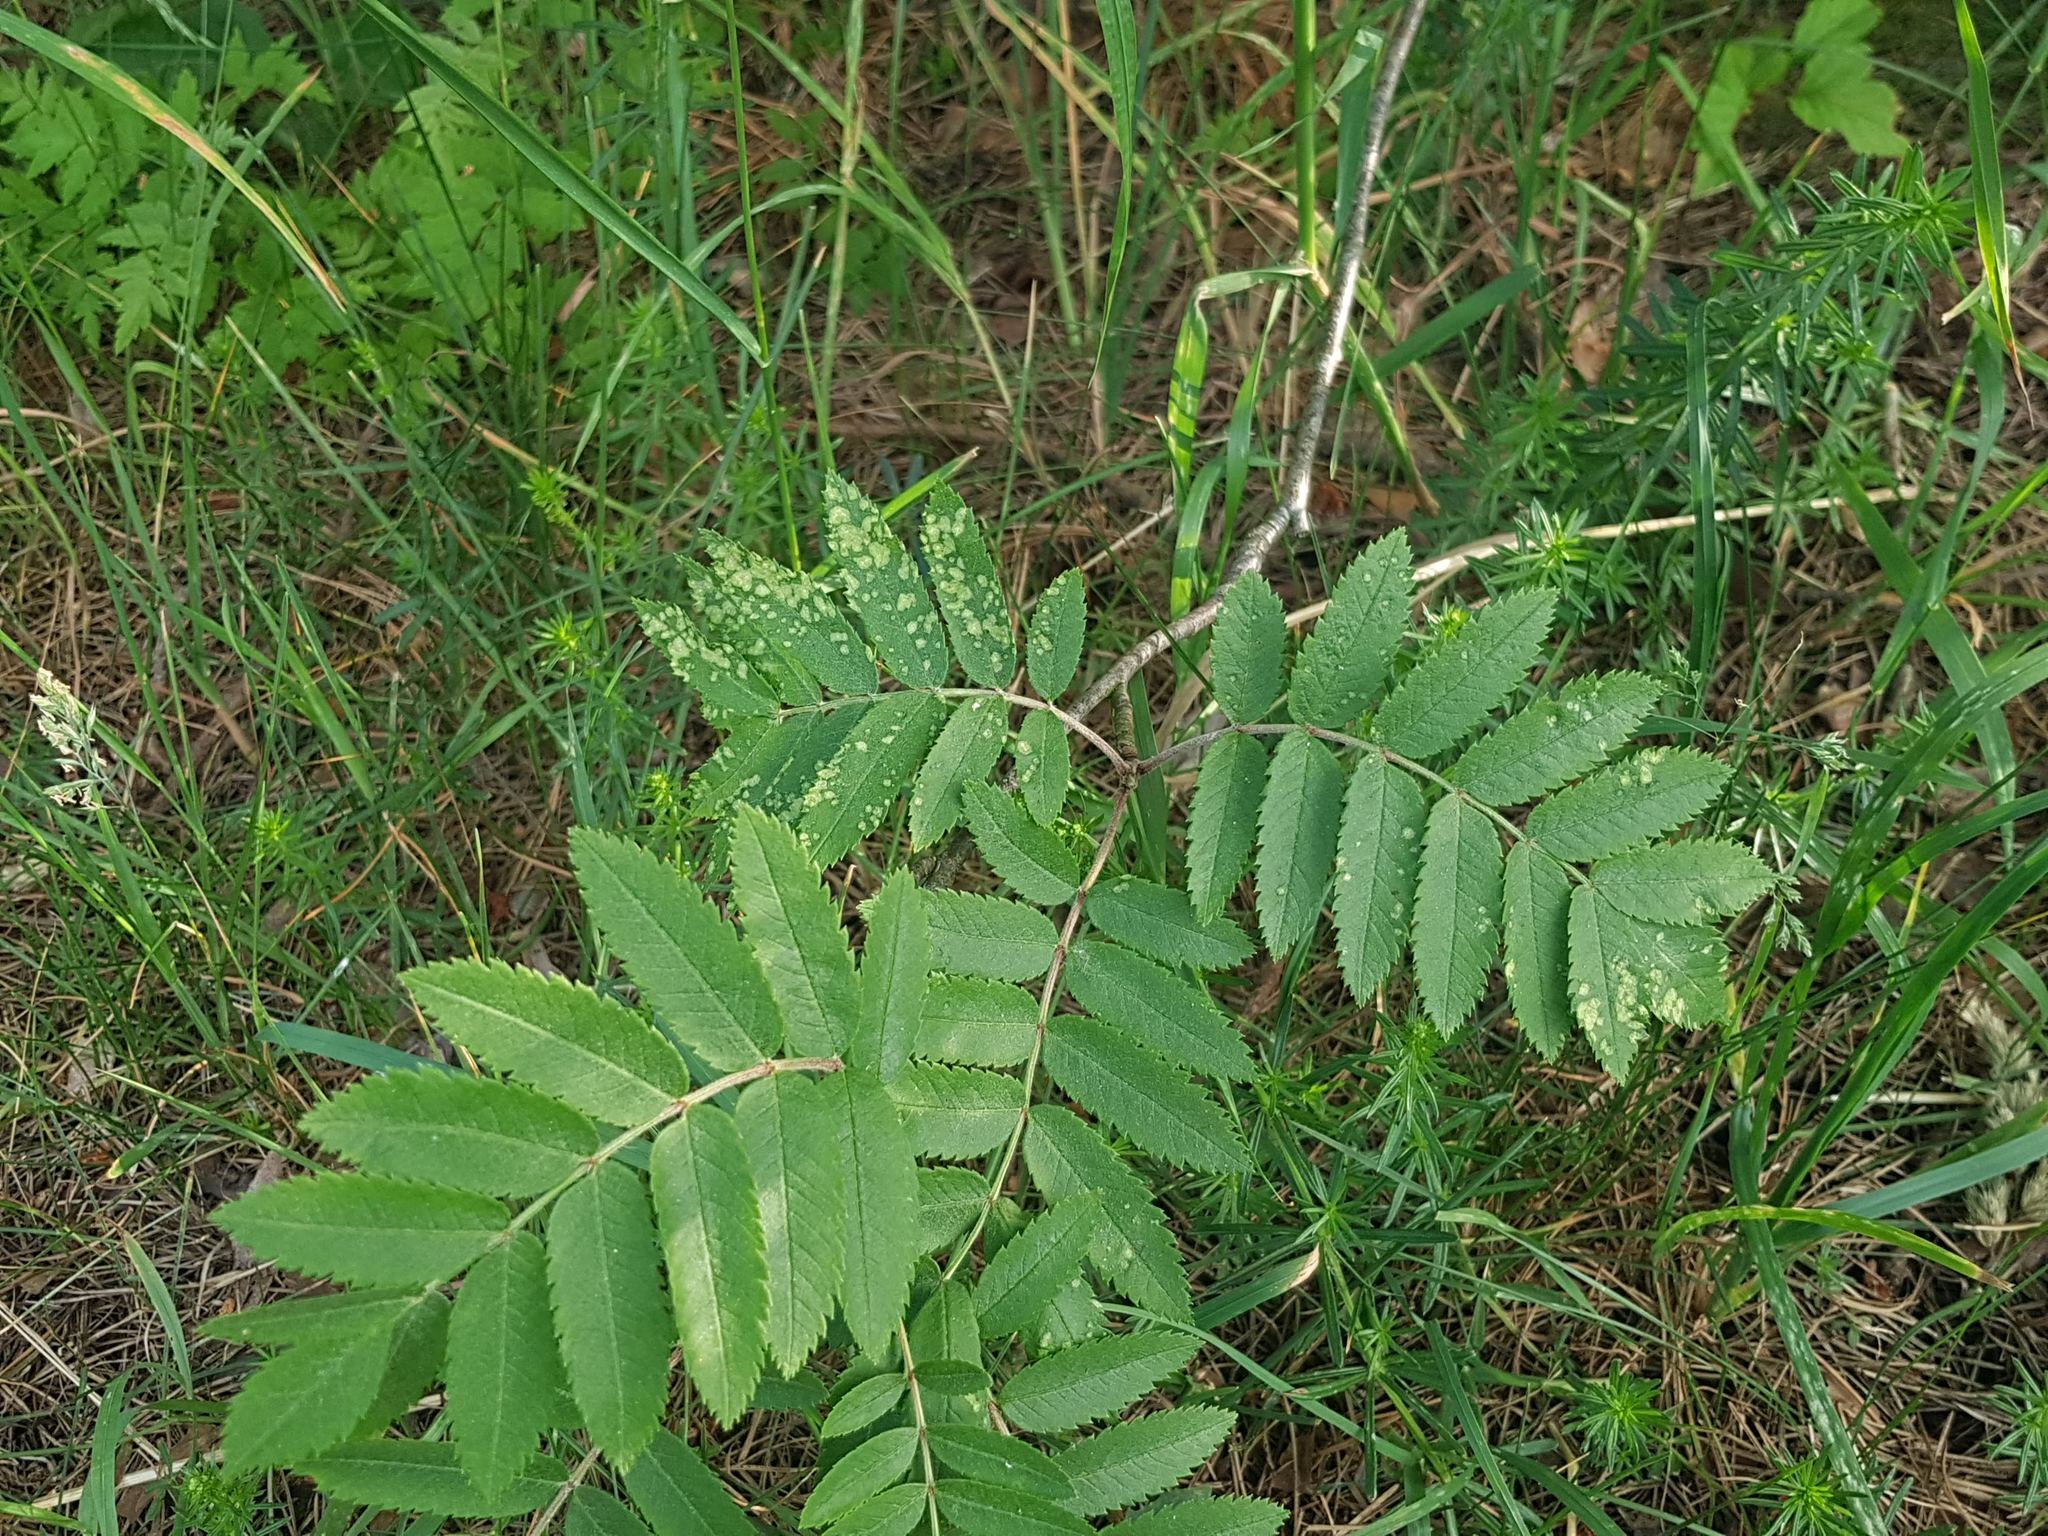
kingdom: Animalia
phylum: Arthropoda
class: Arachnida
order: Trombidiformes
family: Eriophyidae
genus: Eriophyes
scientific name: Eriophyes sorbi
